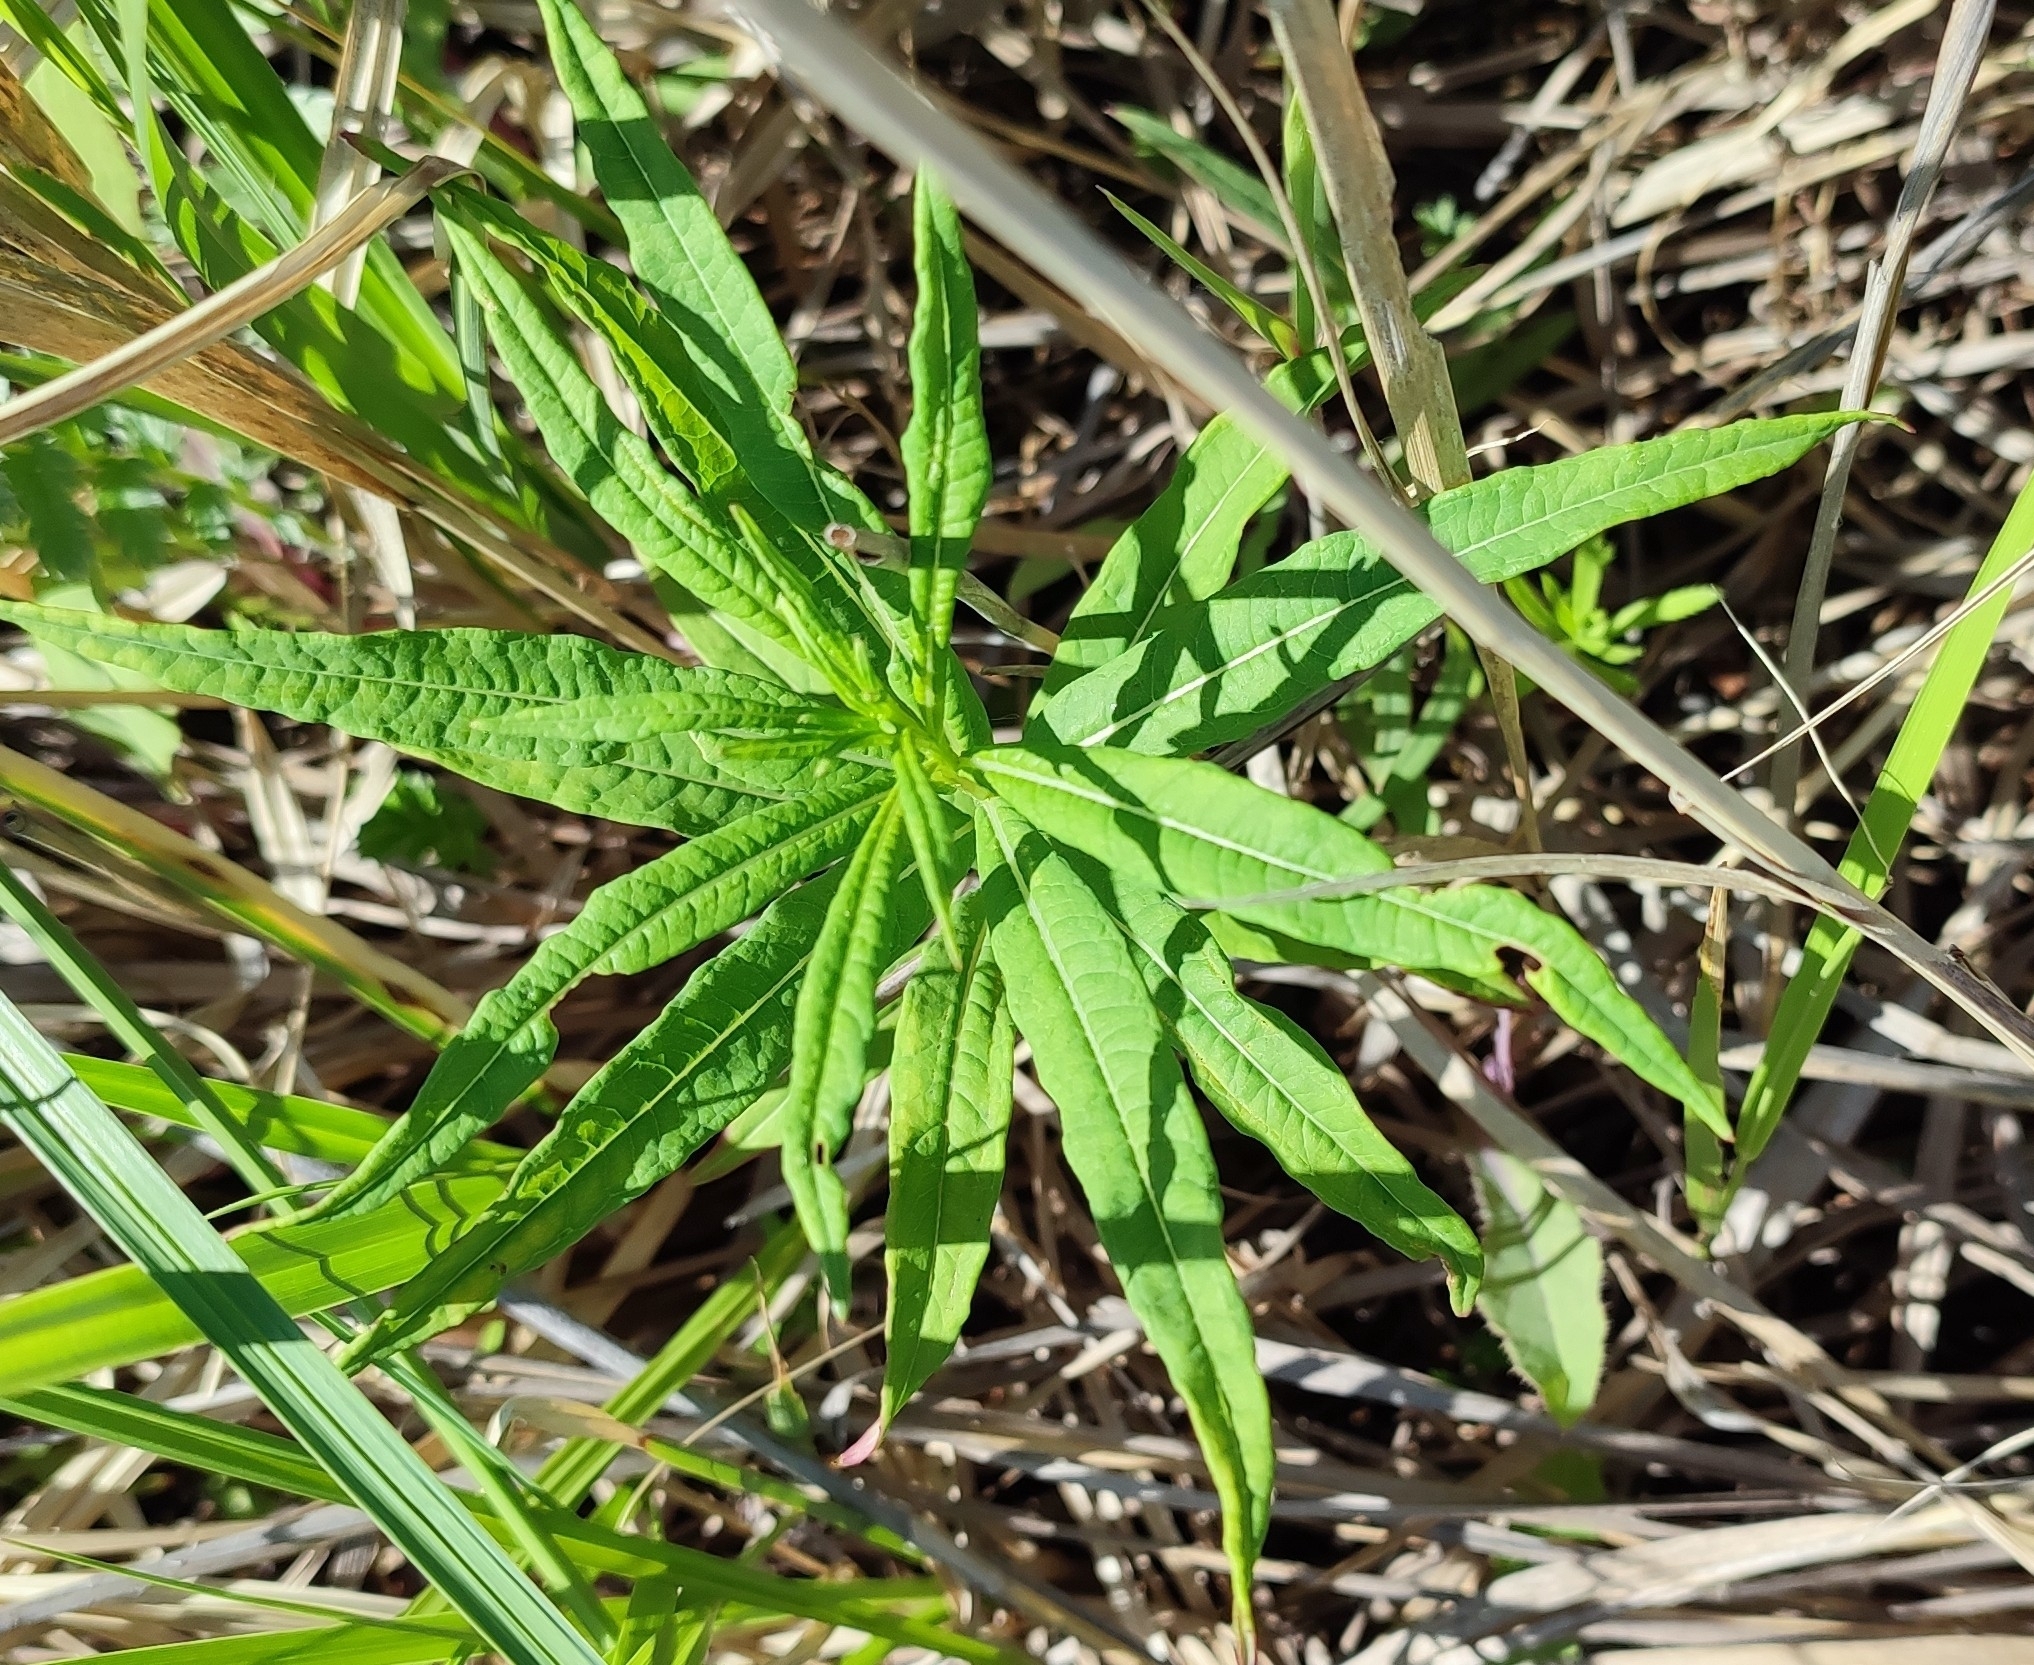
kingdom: Plantae
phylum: Tracheophyta
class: Magnoliopsida
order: Myrtales
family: Onagraceae
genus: Chamaenerion
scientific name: Chamaenerion angustifolium
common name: Fireweed
